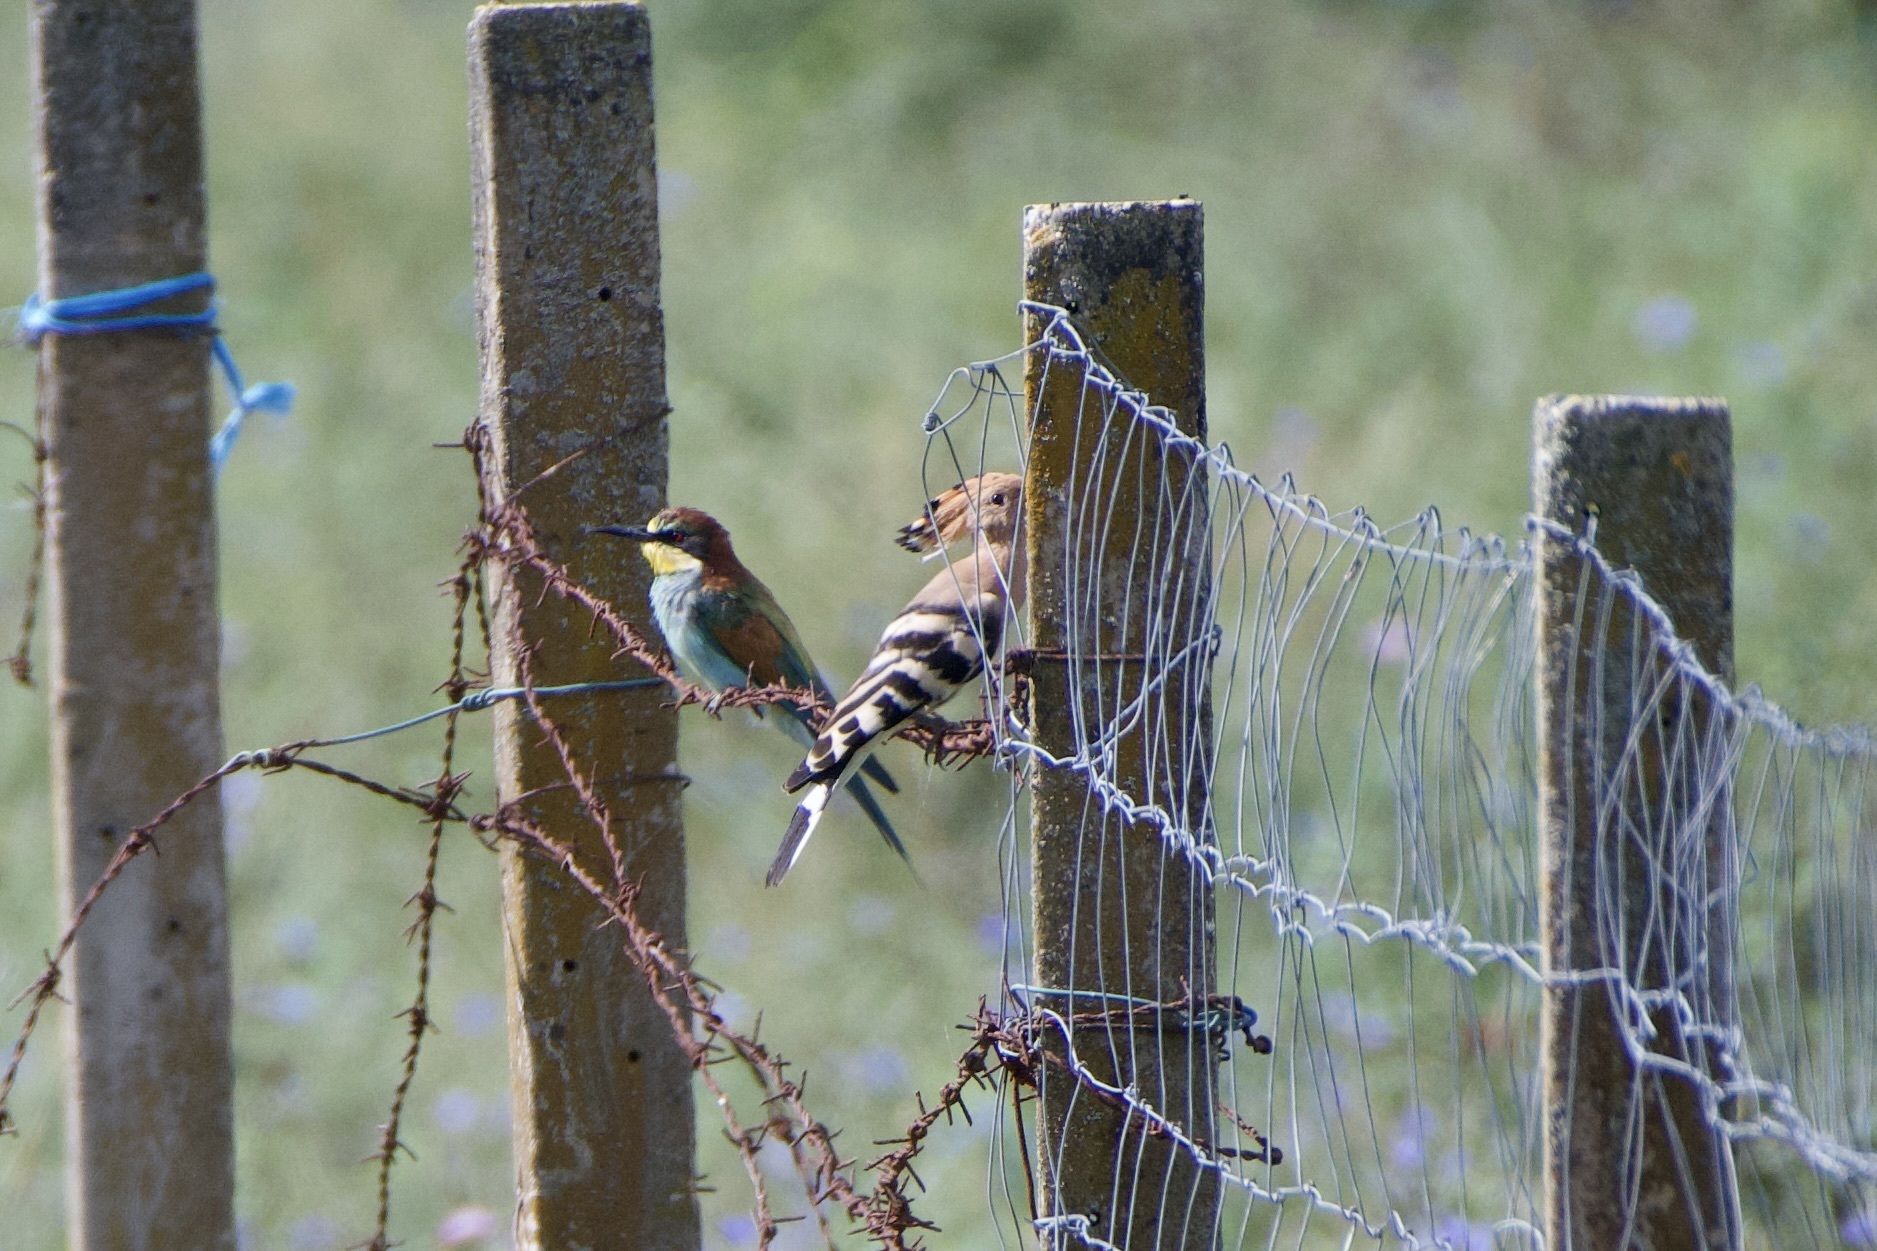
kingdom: Animalia
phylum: Chordata
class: Aves
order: Coraciiformes
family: Meropidae
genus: Merops
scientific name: Merops apiaster
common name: European bee-eater
